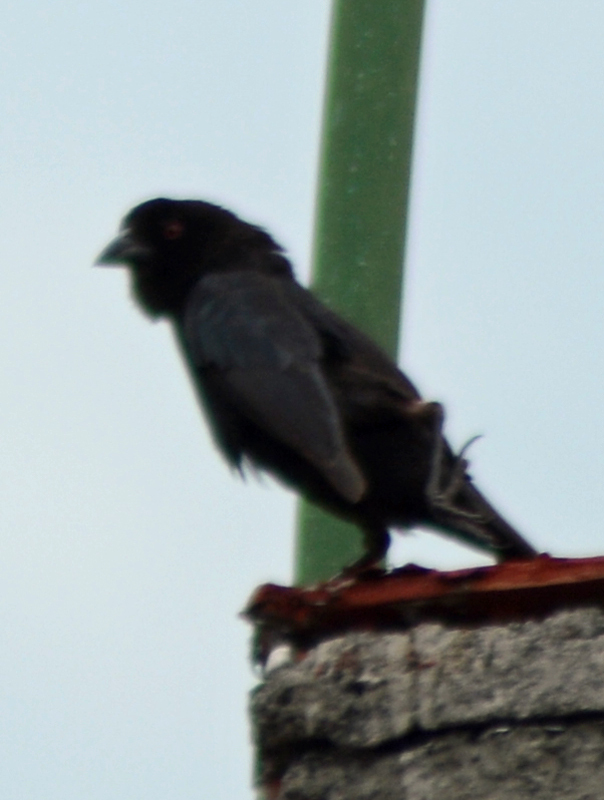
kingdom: Animalia
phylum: Chordata
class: Aves
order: Passeriformes
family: Icteridae
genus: Molothrus
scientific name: Molothrus aeneus
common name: Bronzed cowbird
